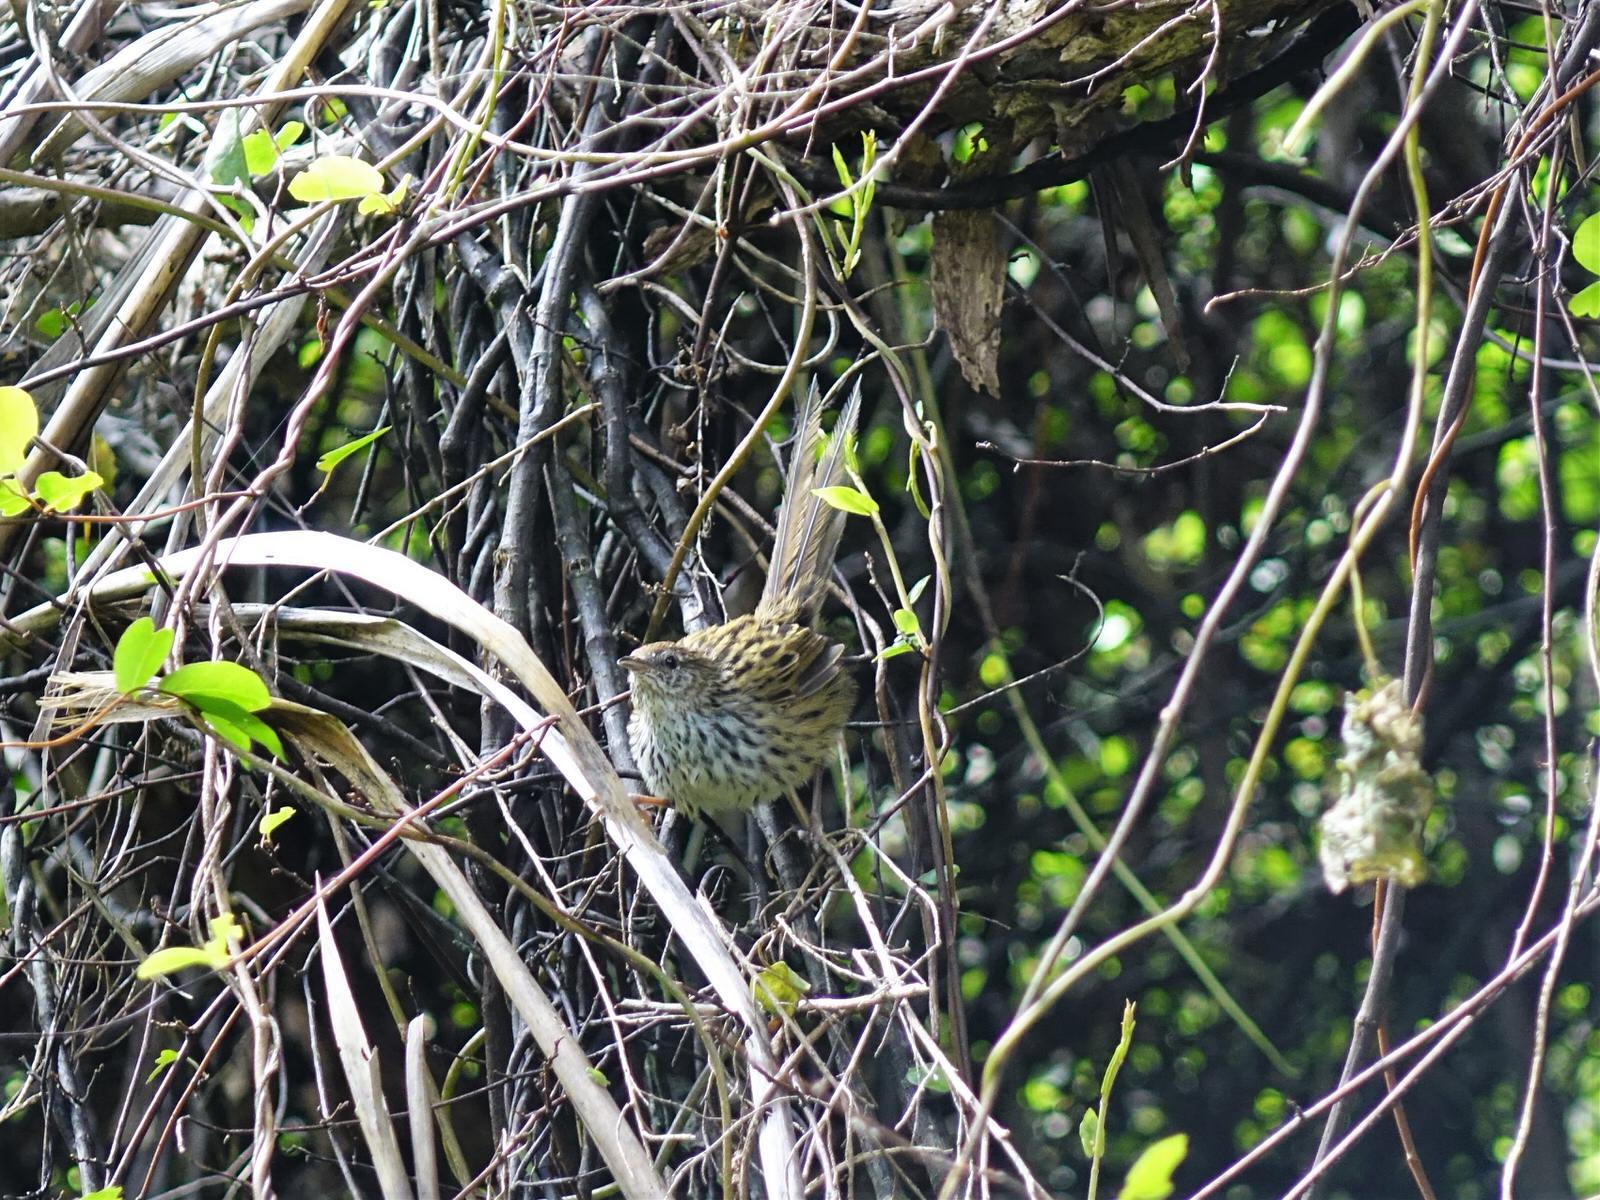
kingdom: Animalia
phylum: Chordata
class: Aves
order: Passeriformes
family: Locustellidae
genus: Megalurus
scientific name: Megalurus punctatus
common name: New zealand fernbird
